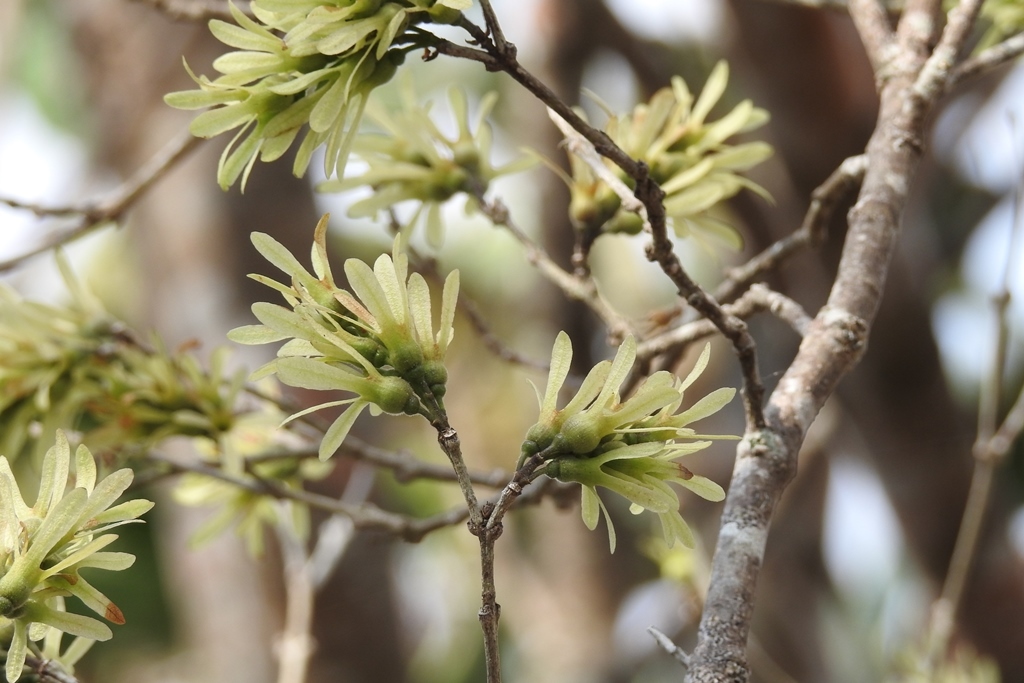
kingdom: Plantae
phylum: Tracheophyta
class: Magnoliopsida
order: Lamiales
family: Verbenaceae
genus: Petrea
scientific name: Petrea asperifolia
